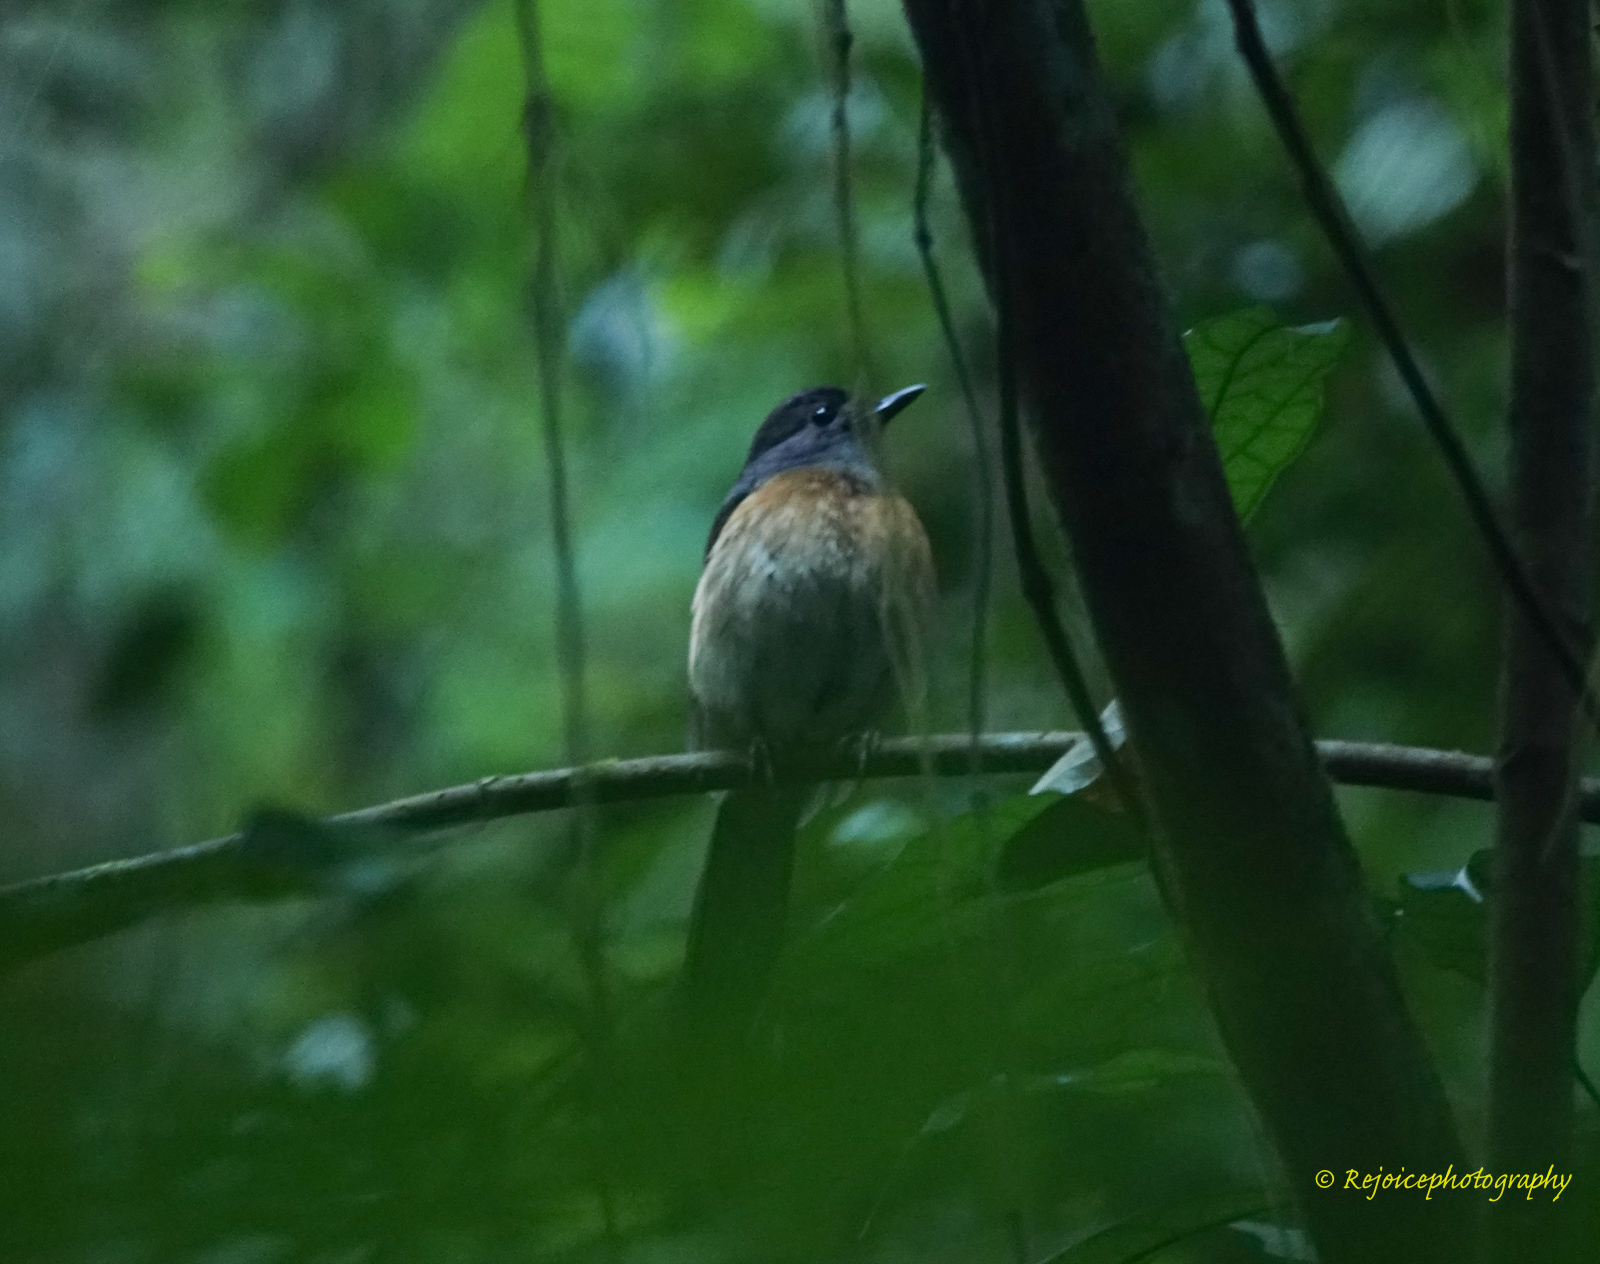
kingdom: Animalia
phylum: Chordata
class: Aves
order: Passeriformes
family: Muscicapidae
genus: Copsychus
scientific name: Copsychus malabaricus
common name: White-rumped shama
